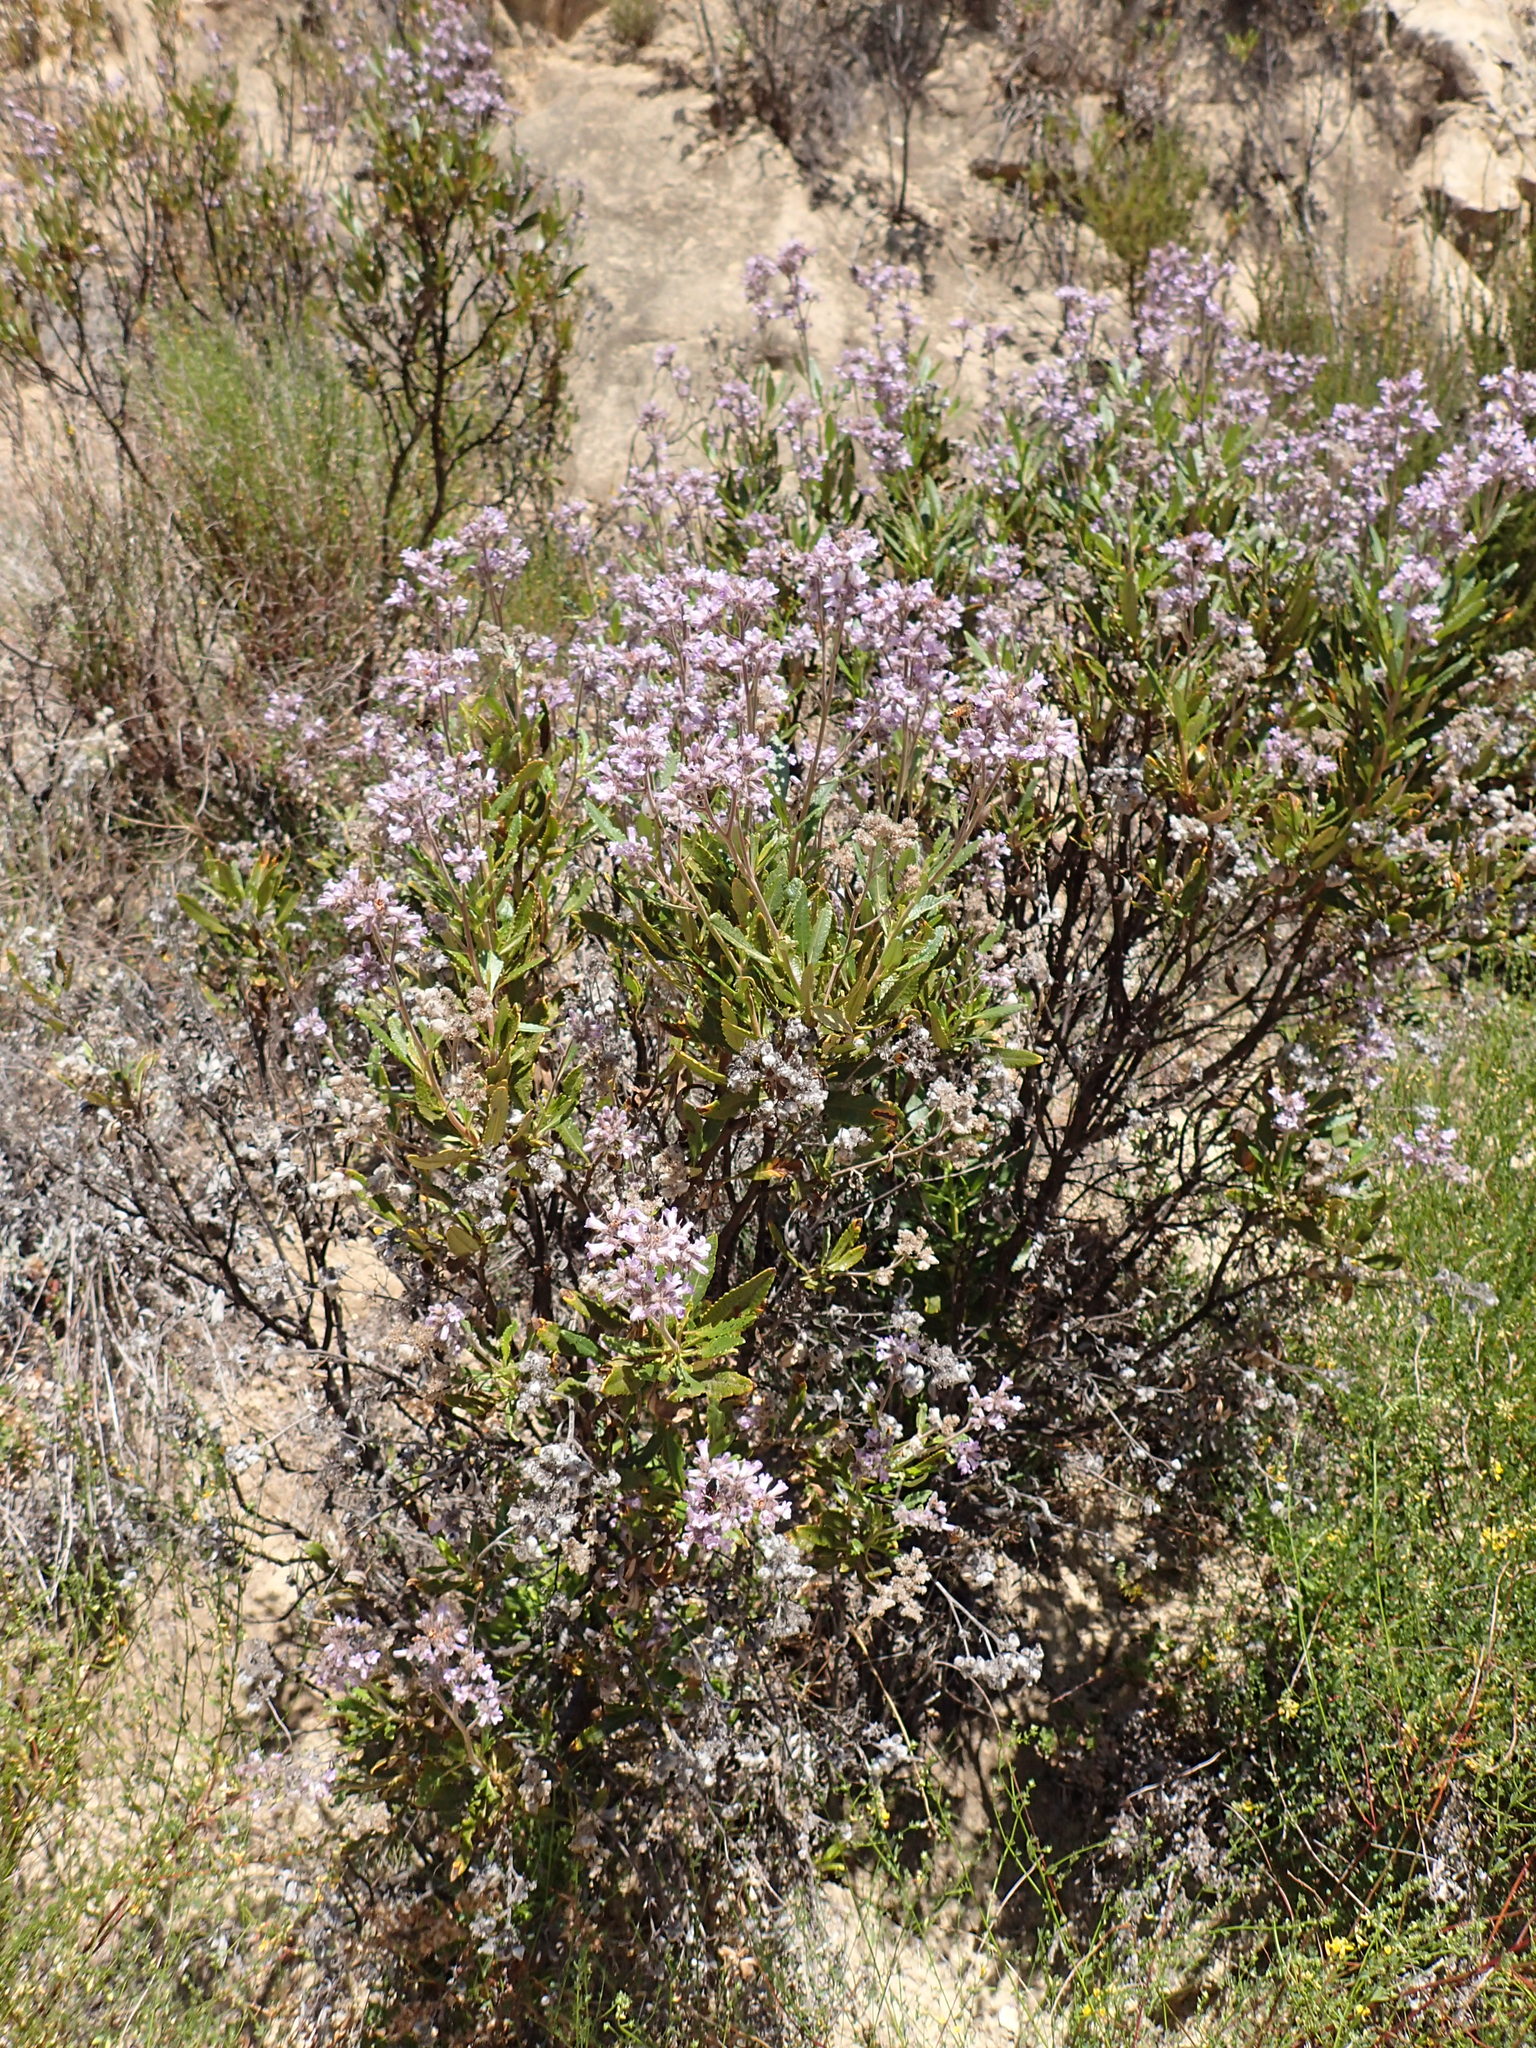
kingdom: Plantae
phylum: Tracheophyta
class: Magnoliopsida
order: Boraginales
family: Namaceae
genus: Eriodictyon
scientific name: Eriodictyon crassifolium
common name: Thick-leaf yerba-santa
